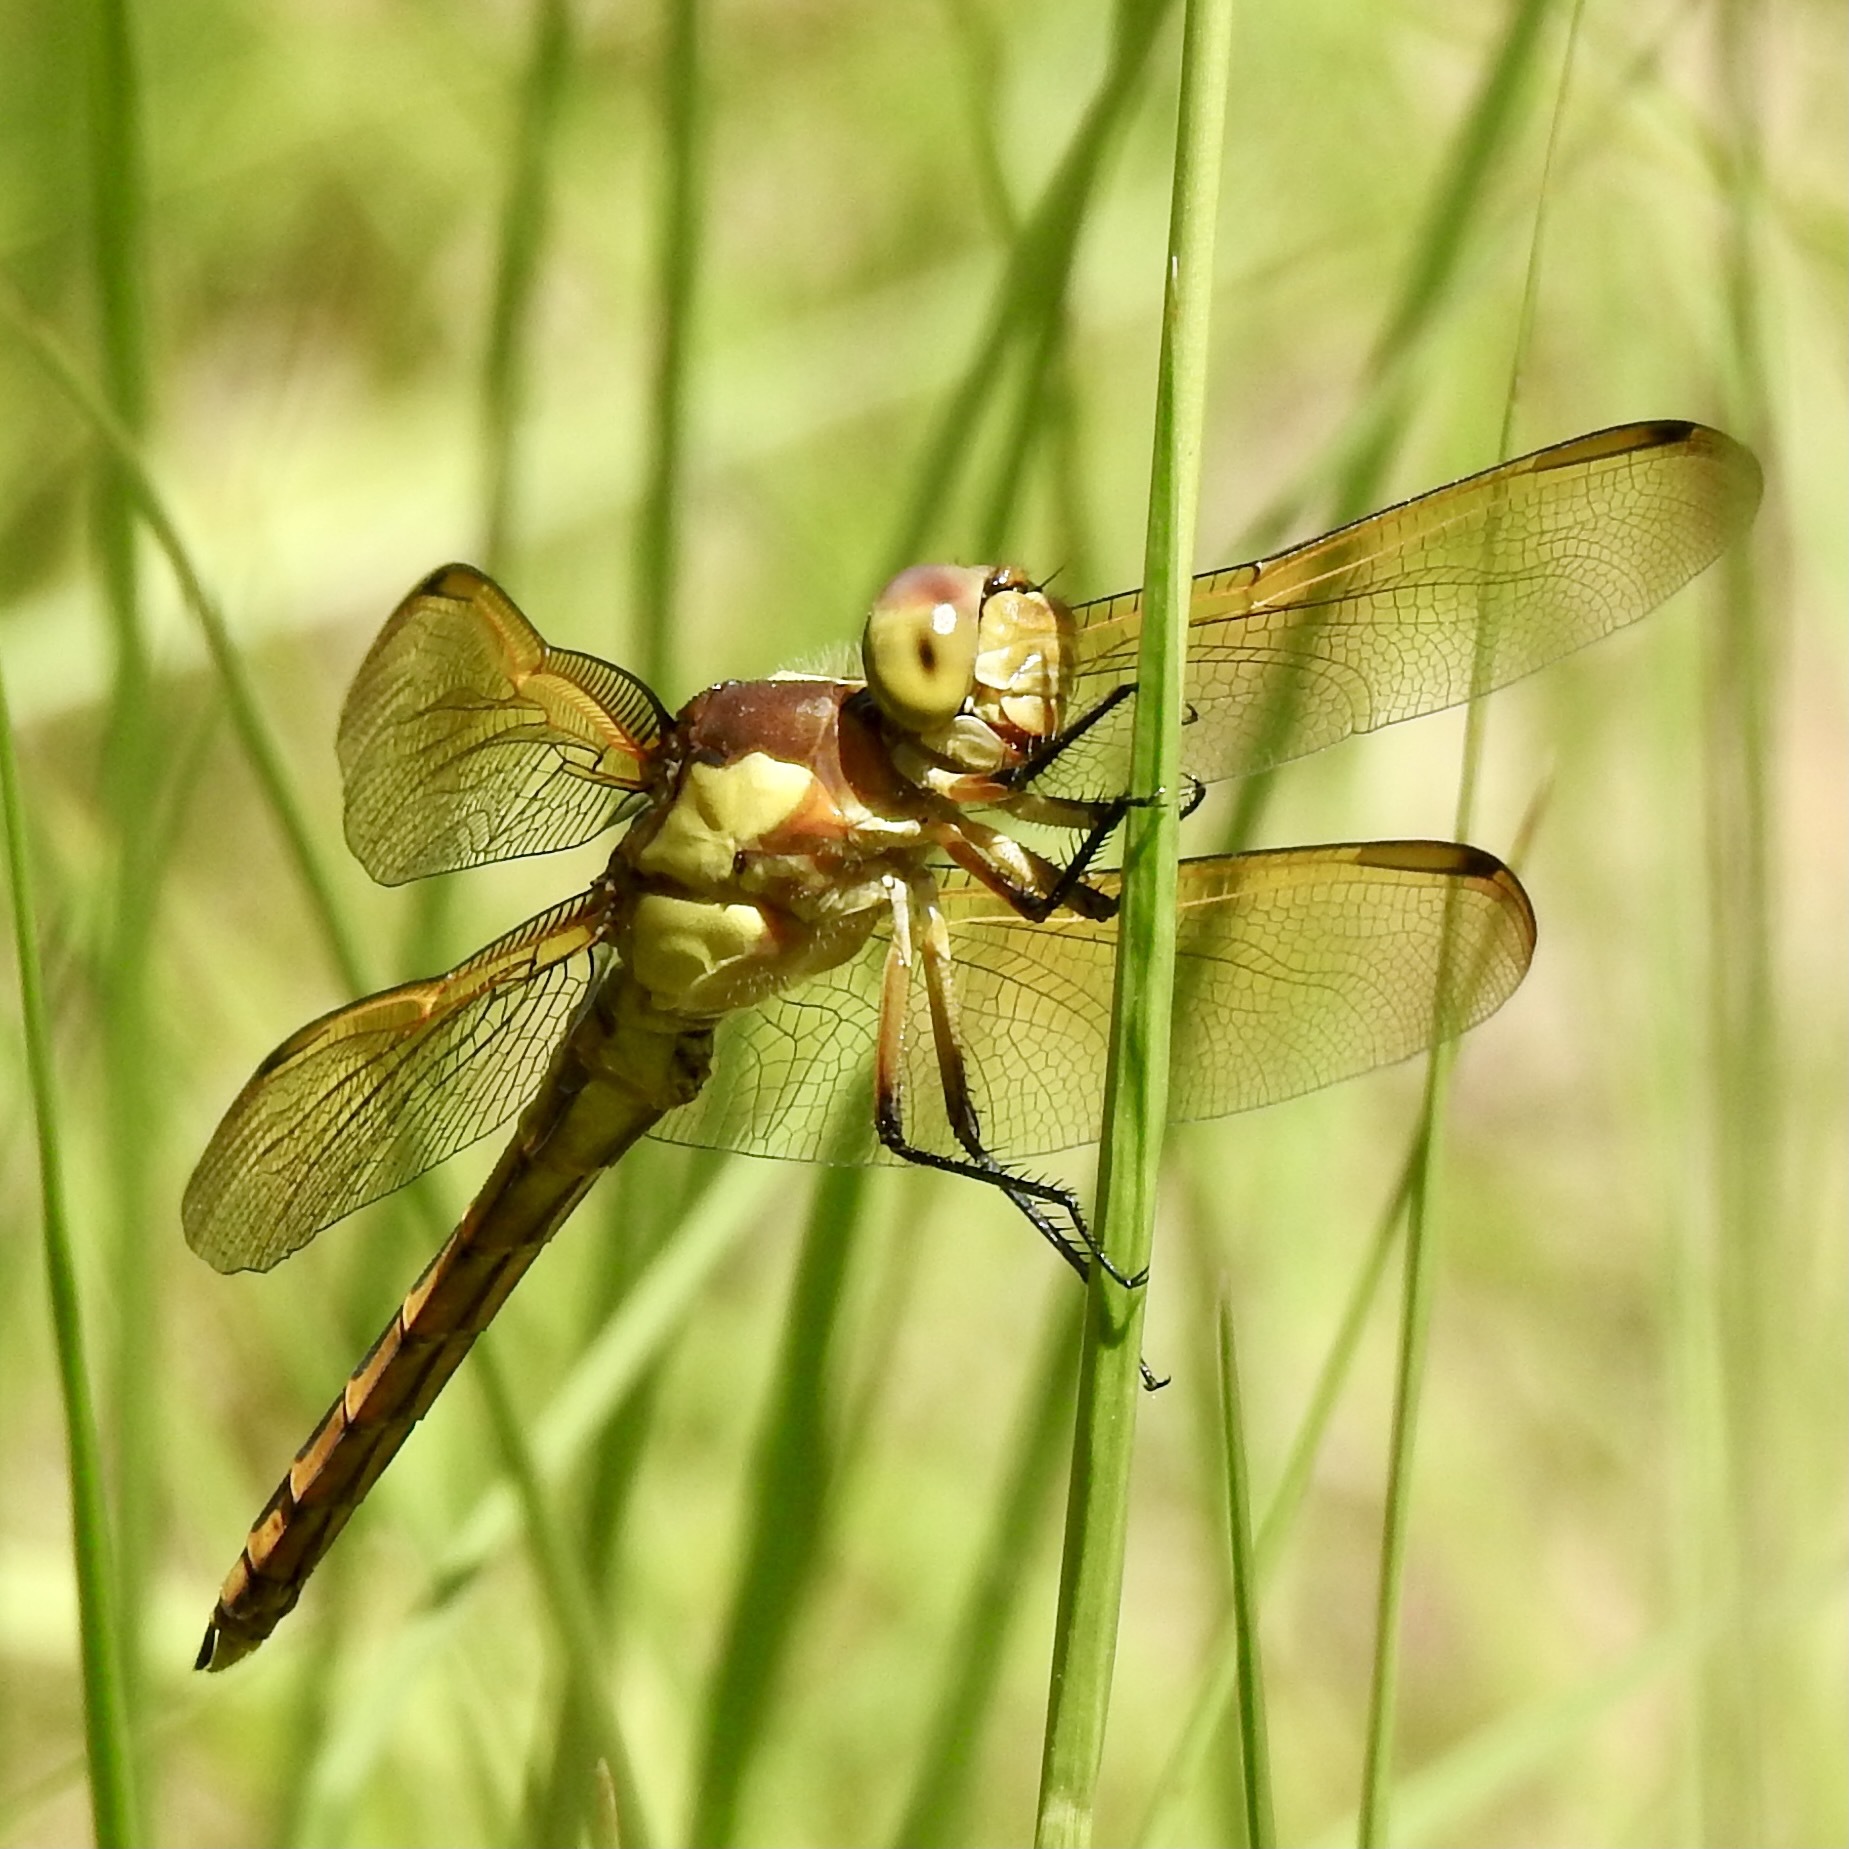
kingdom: Animalia
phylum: Arthropoda
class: Insecta
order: Odonata
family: Libellulidae
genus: Libellula
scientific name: Libellula flavida
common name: Yellow-sided skimmer
